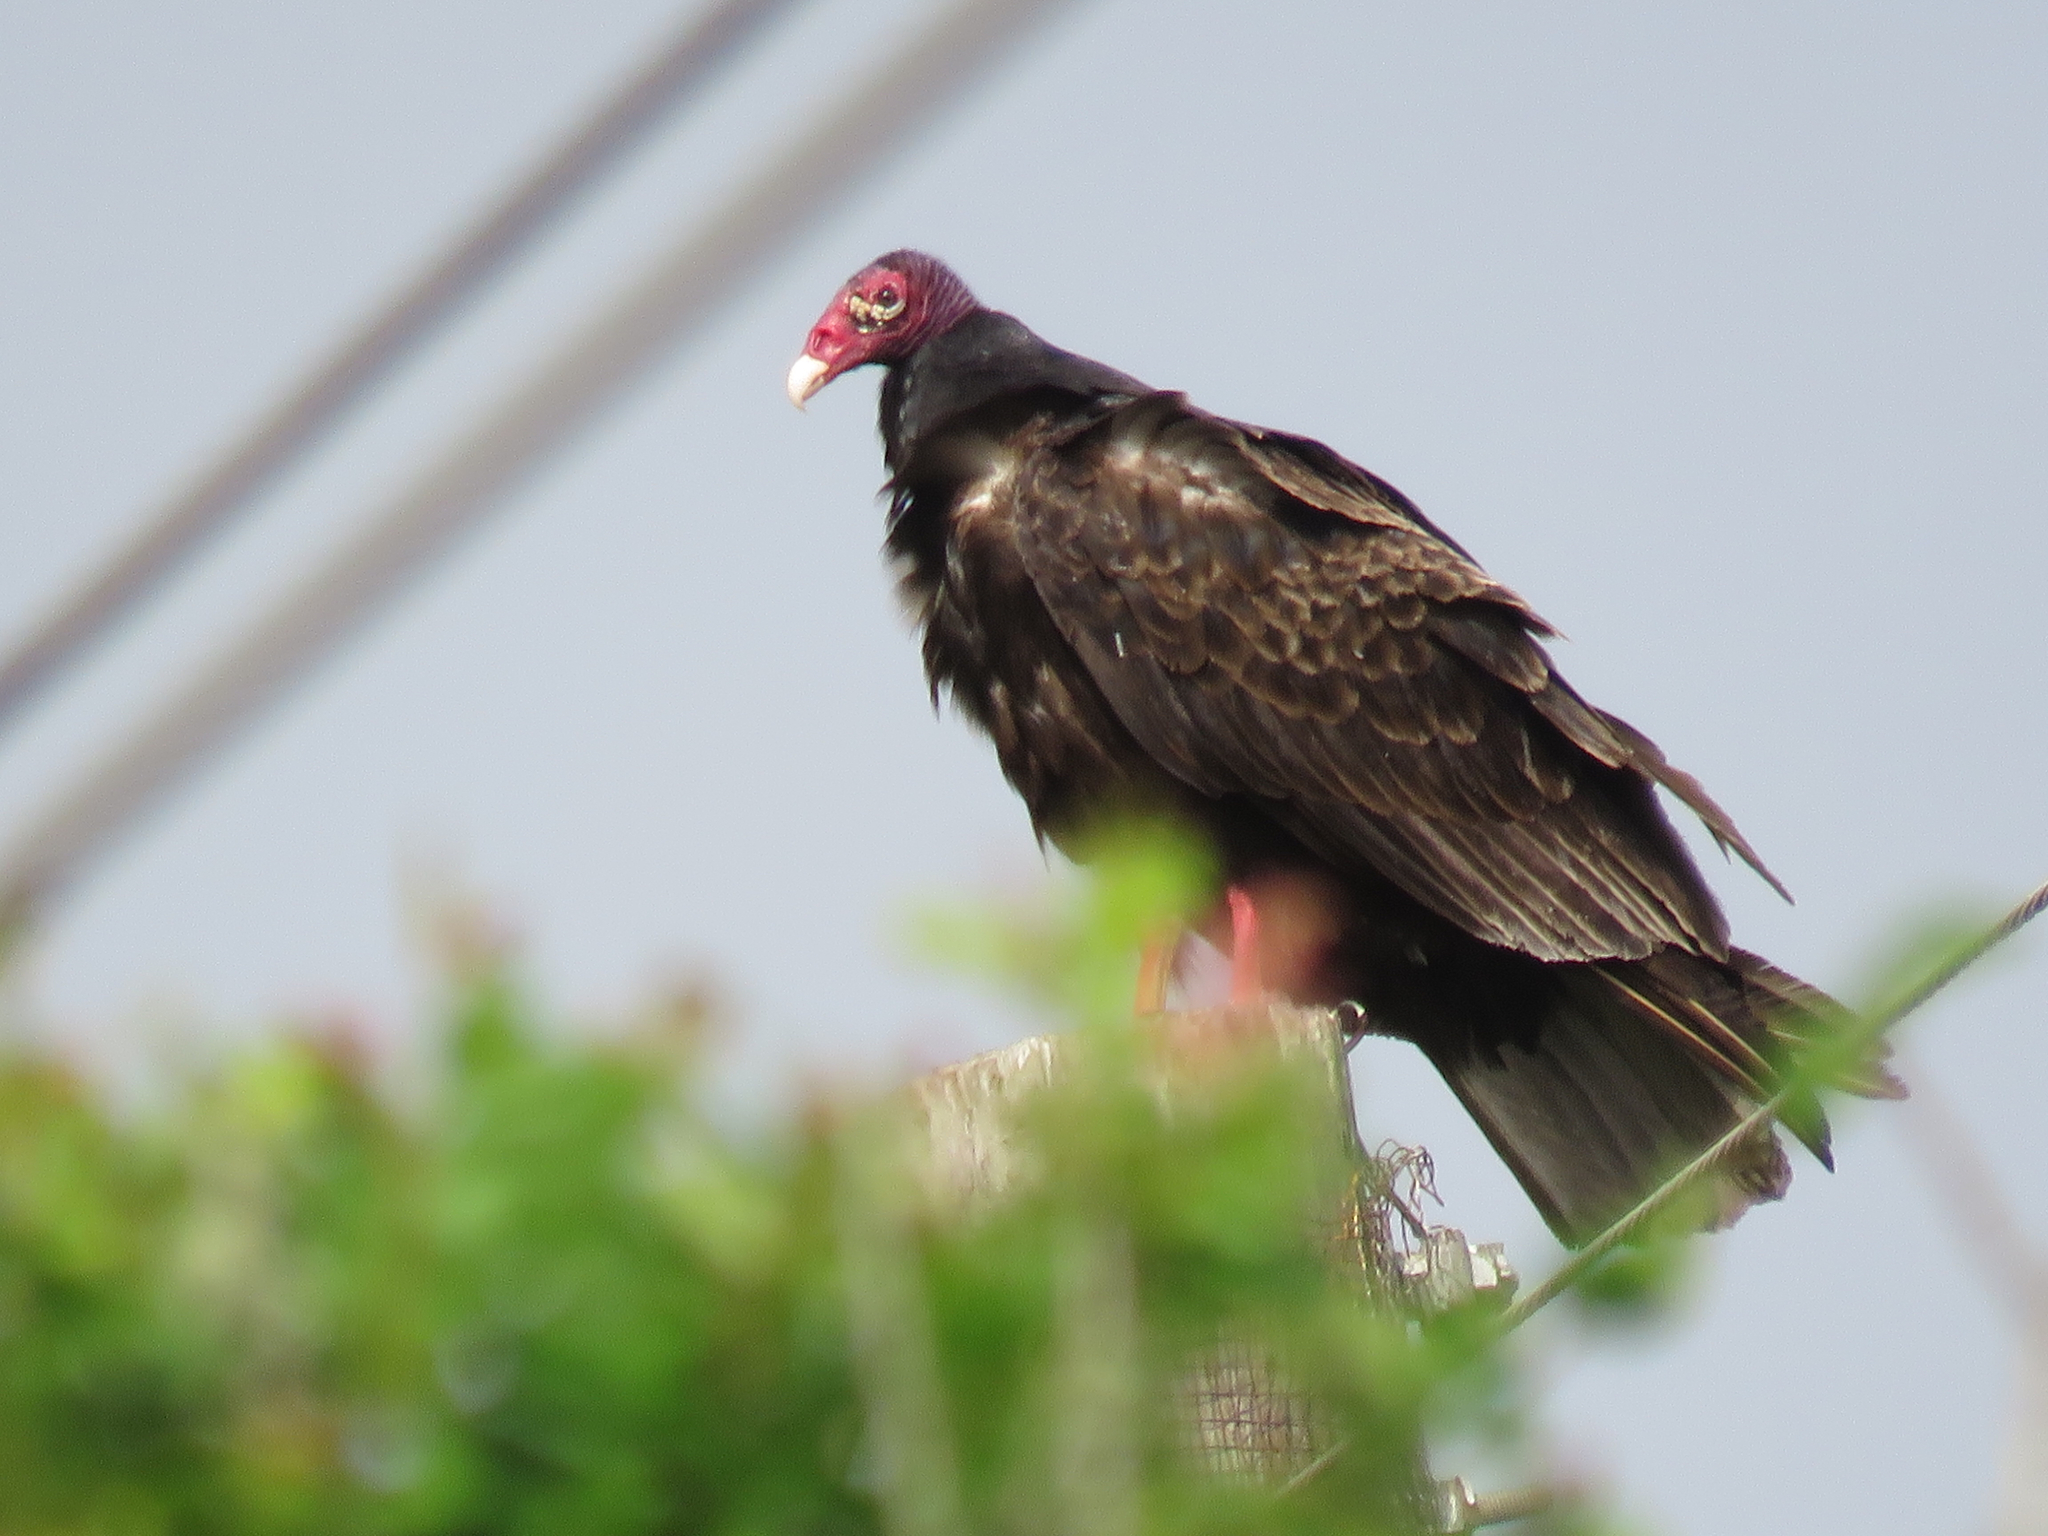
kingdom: Animalia
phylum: Chordata
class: Aves
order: Accipitriformes
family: Cathartidae
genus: Cathartes
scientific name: Cathartes aura
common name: Turkey vulture
